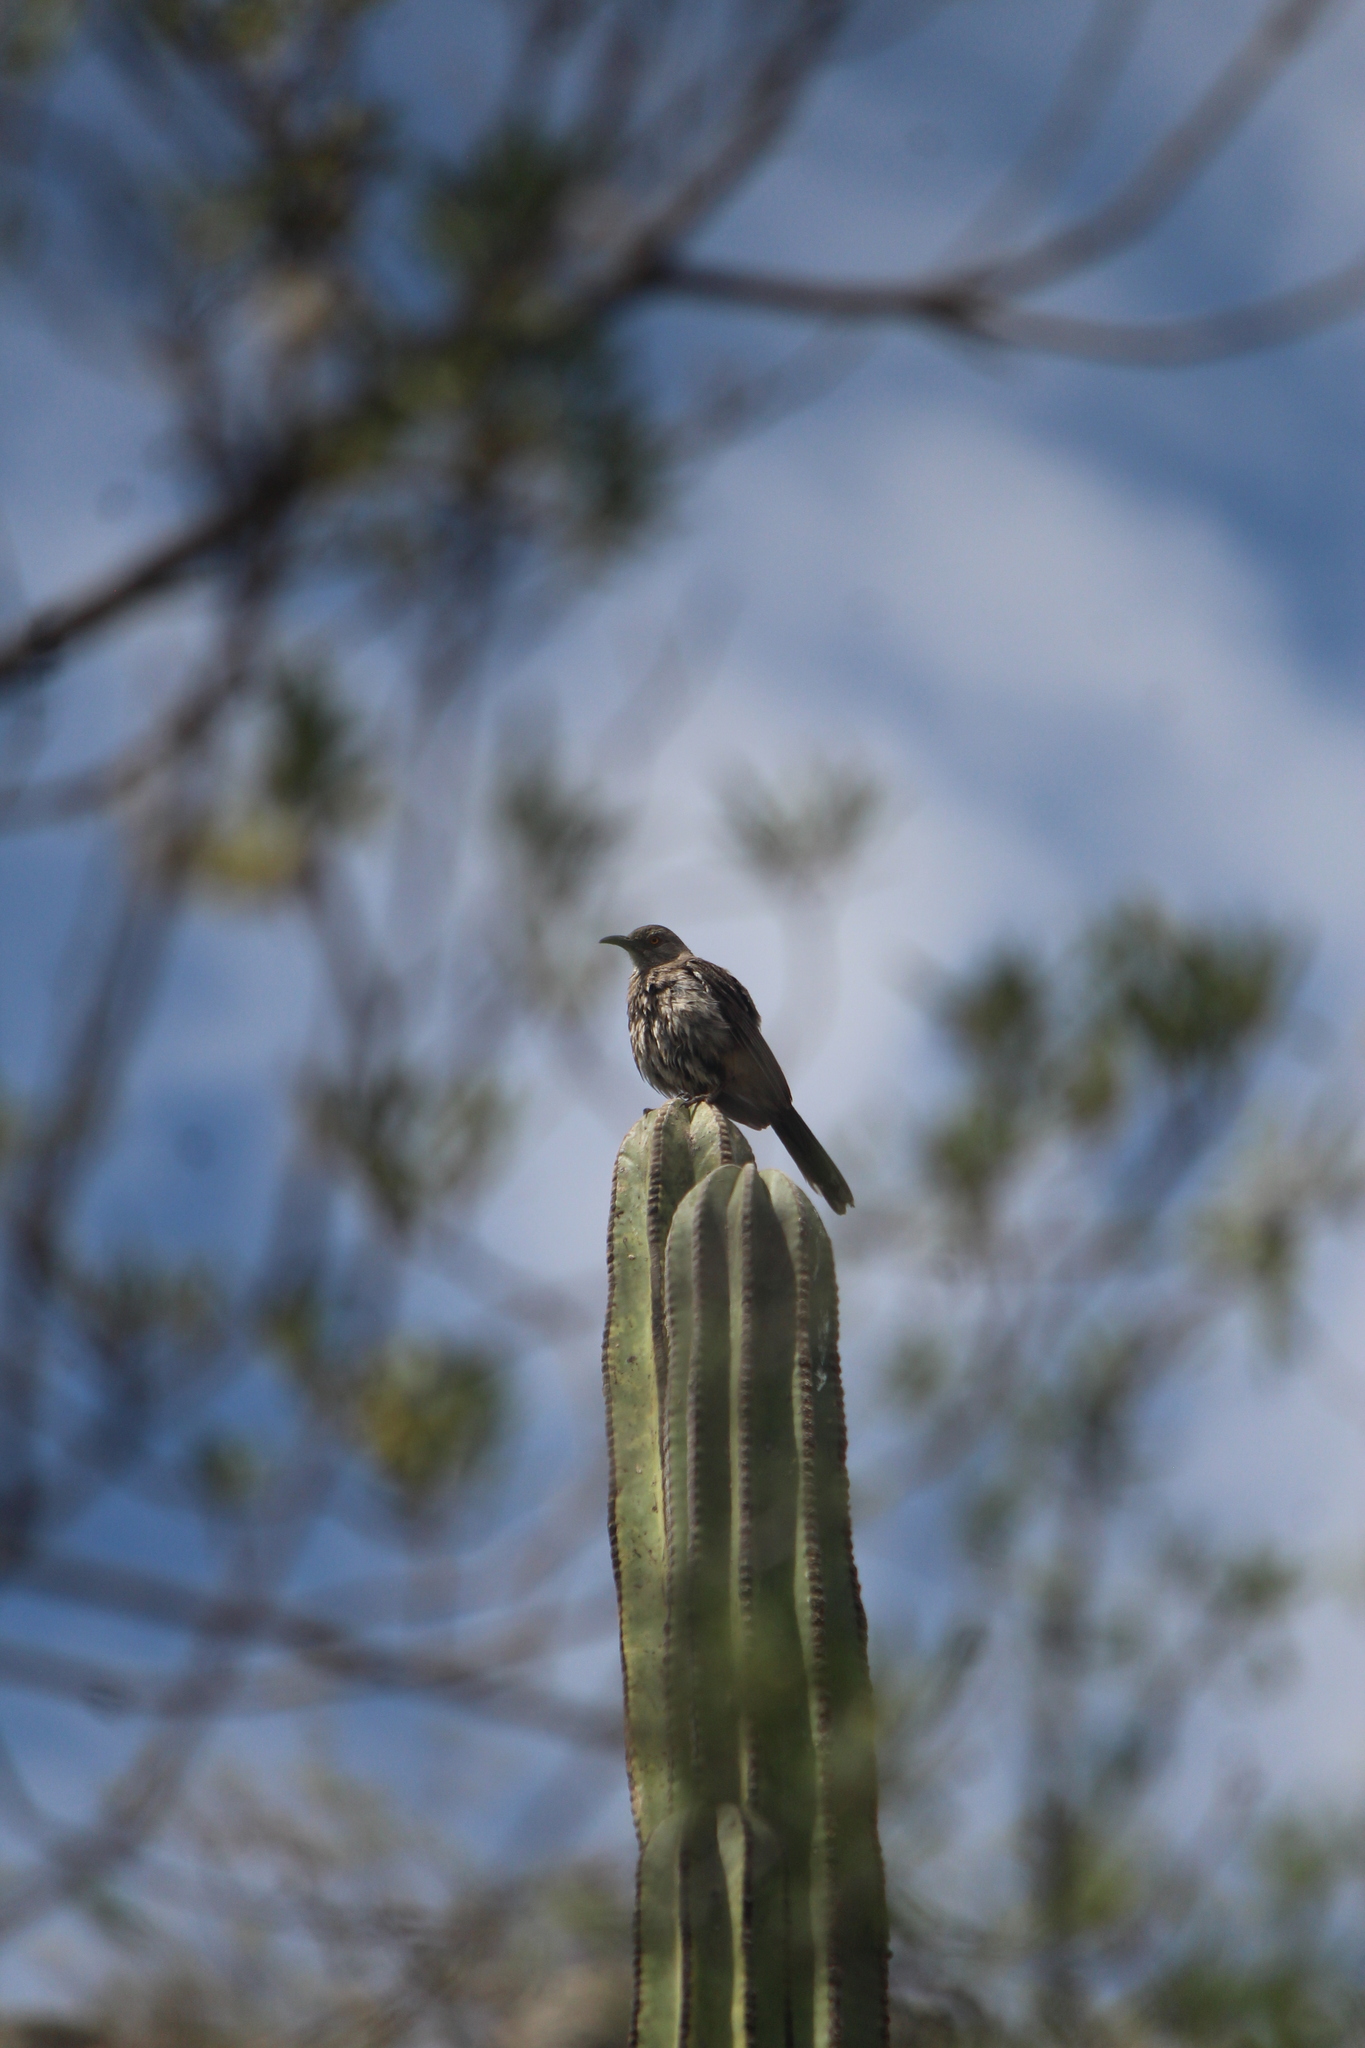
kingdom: Animalia
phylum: Chordata
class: Aves
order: Passeriformes
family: Mimidae
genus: Toxostoma
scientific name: Toxostoma curvirostre
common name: Curve-billed thrasher
